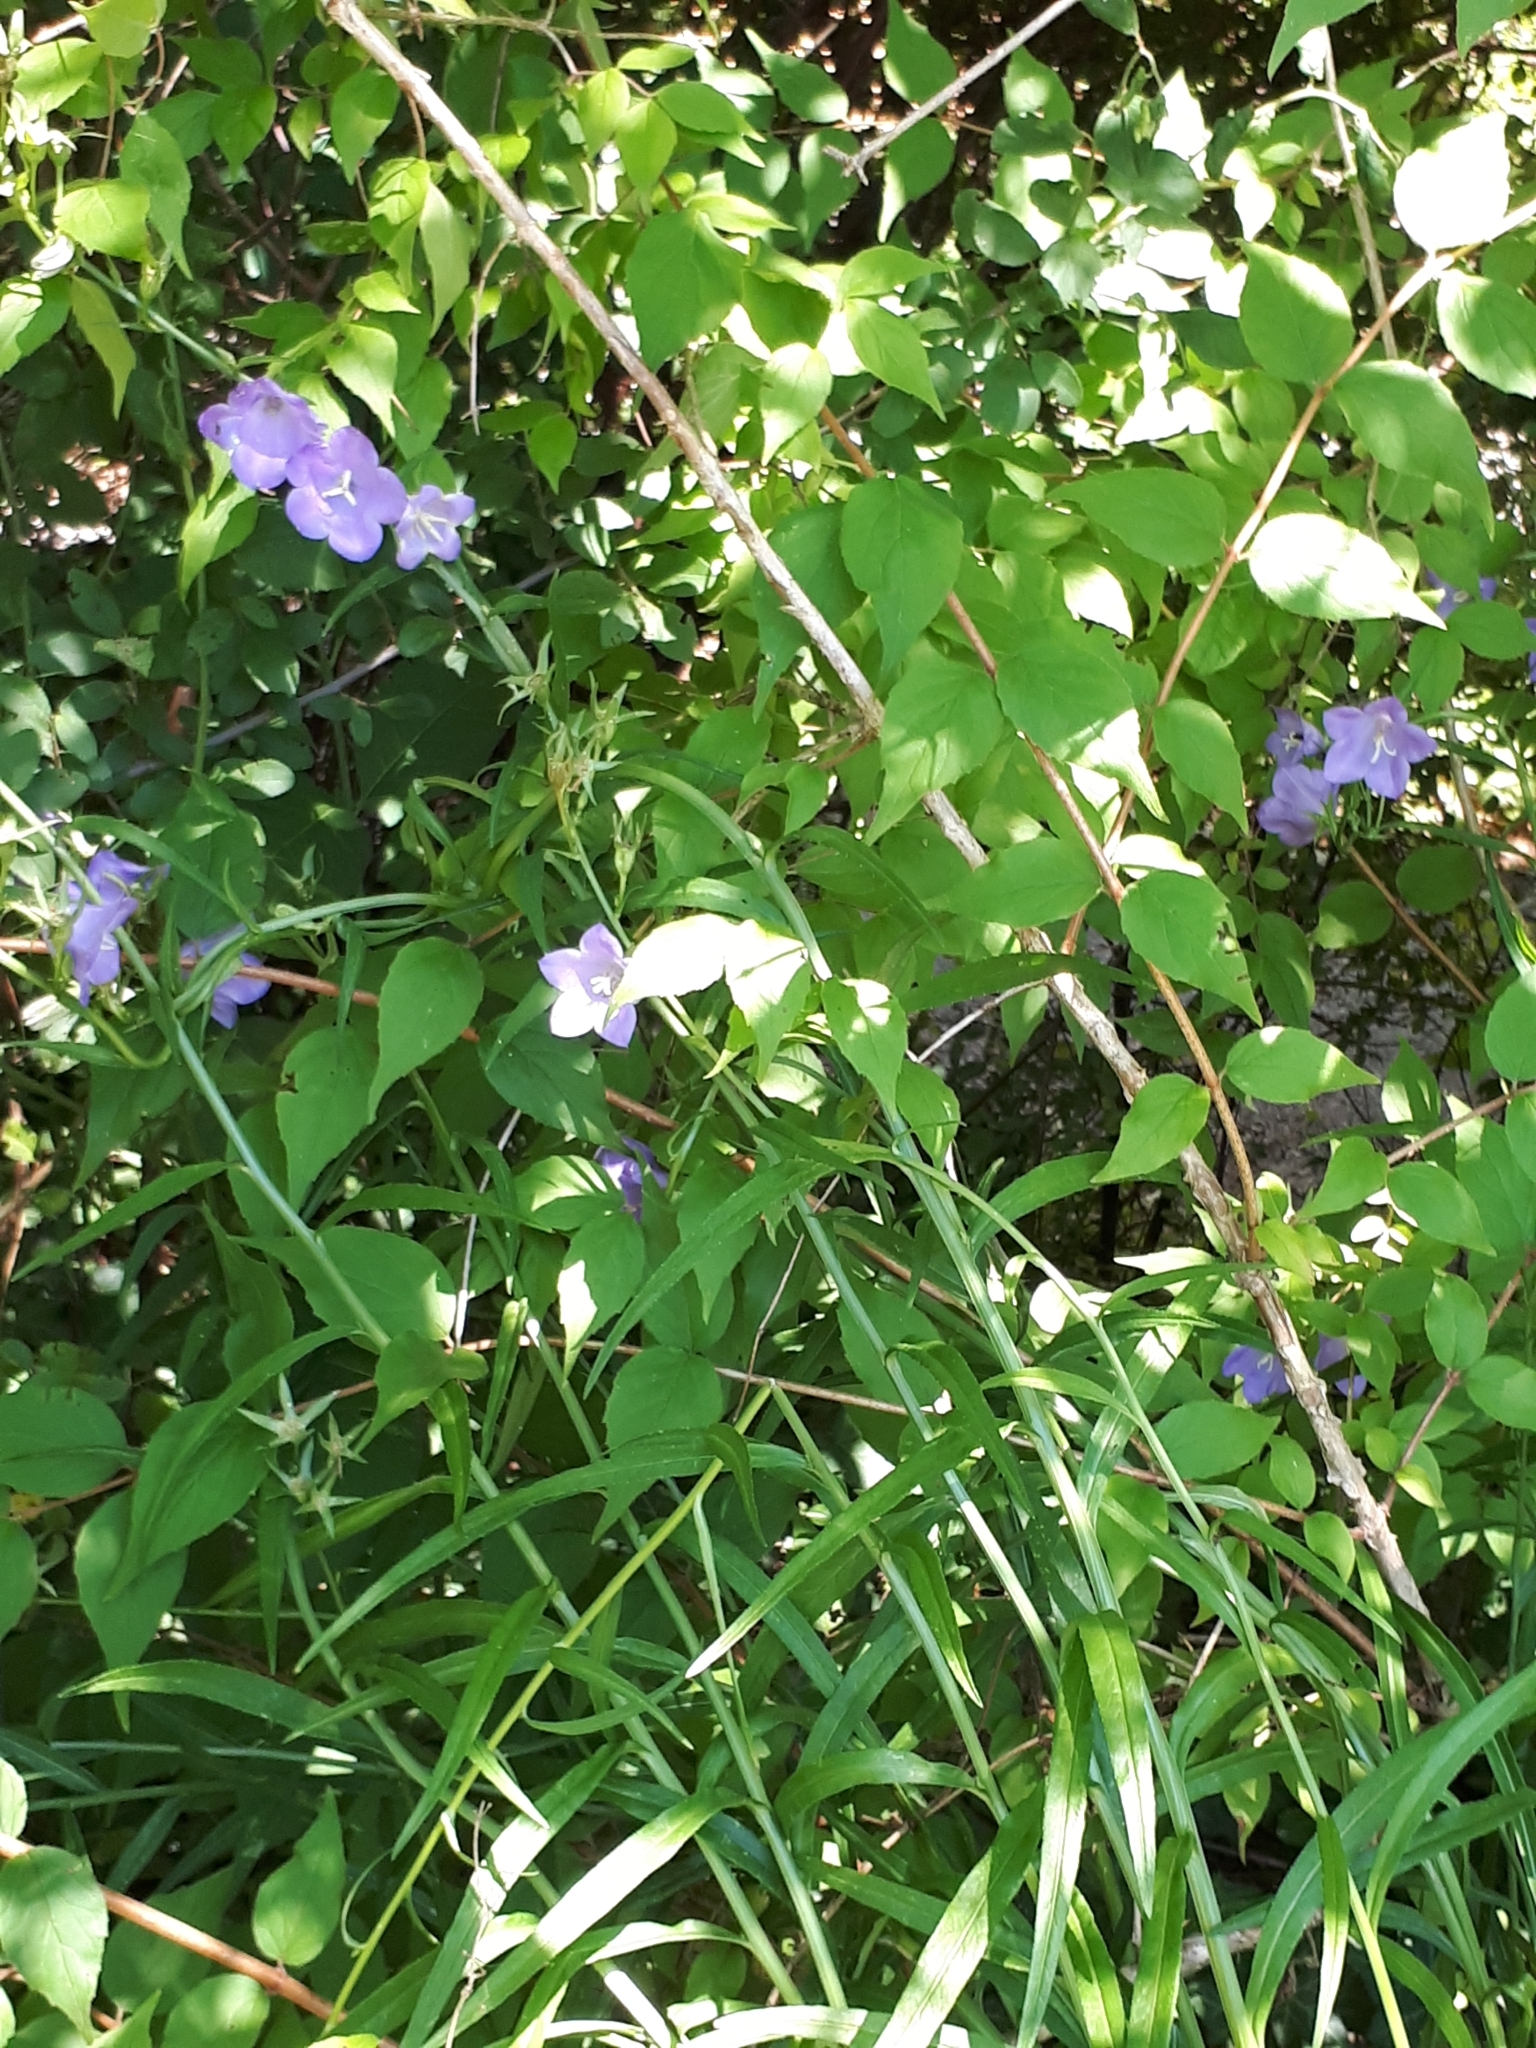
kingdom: Plantae
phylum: Tracheophyta
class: Magnoliopsida
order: Asterales
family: Campanulaceae
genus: Campanula
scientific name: Campanula persicifolia
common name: Peach-leaved bellflower
